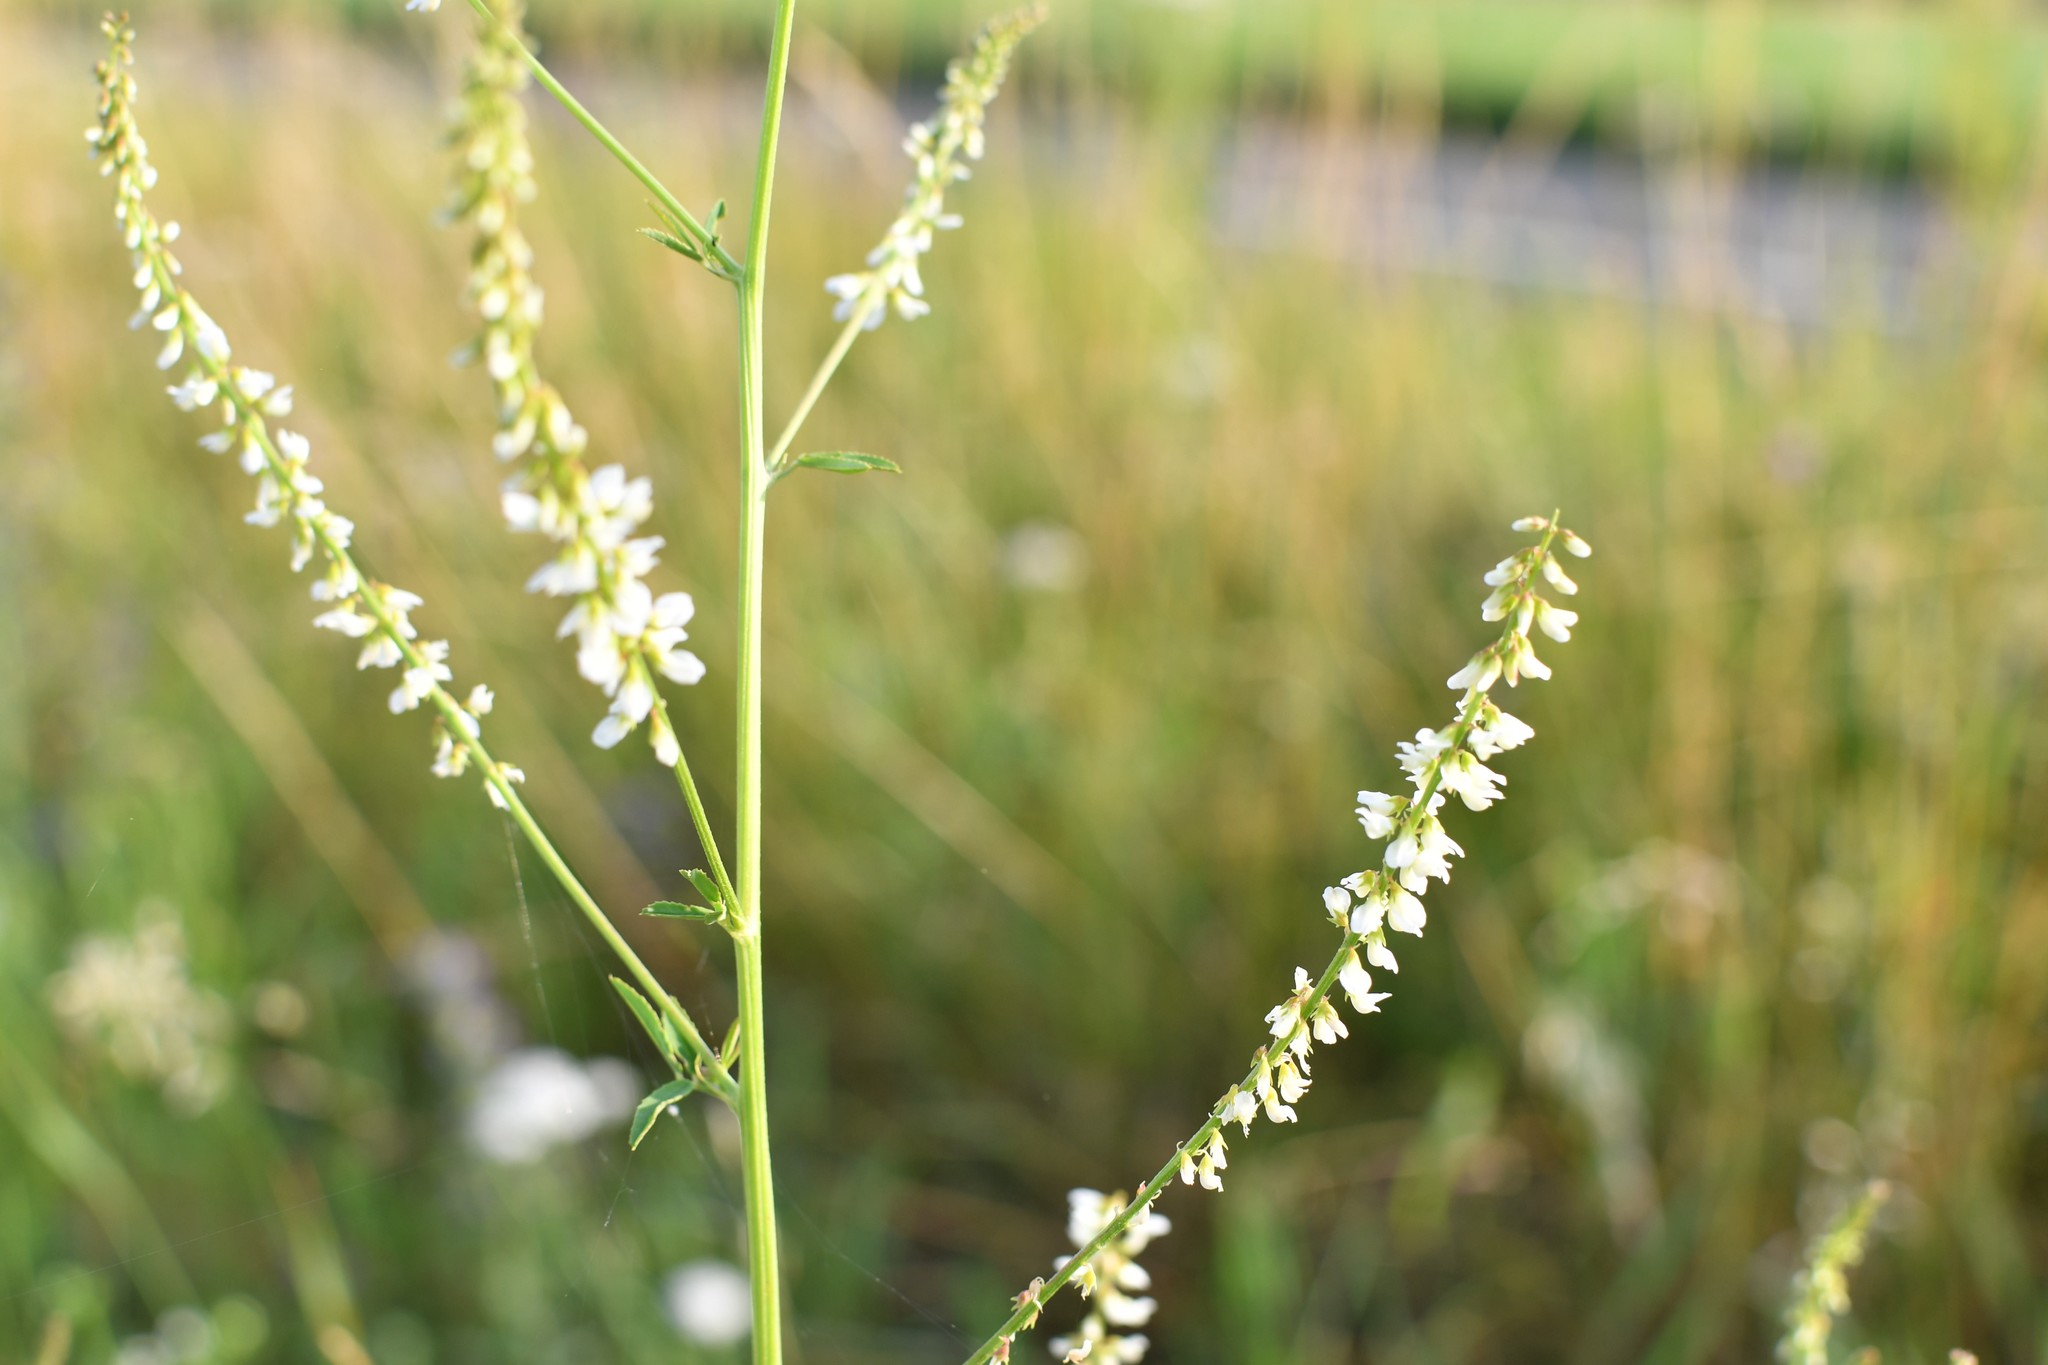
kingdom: Plantae
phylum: Tracheophyta
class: Magnoliopsida
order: Fabales
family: Fabaceae
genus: Melilotus
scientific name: Melilotus albus
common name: White melilot
